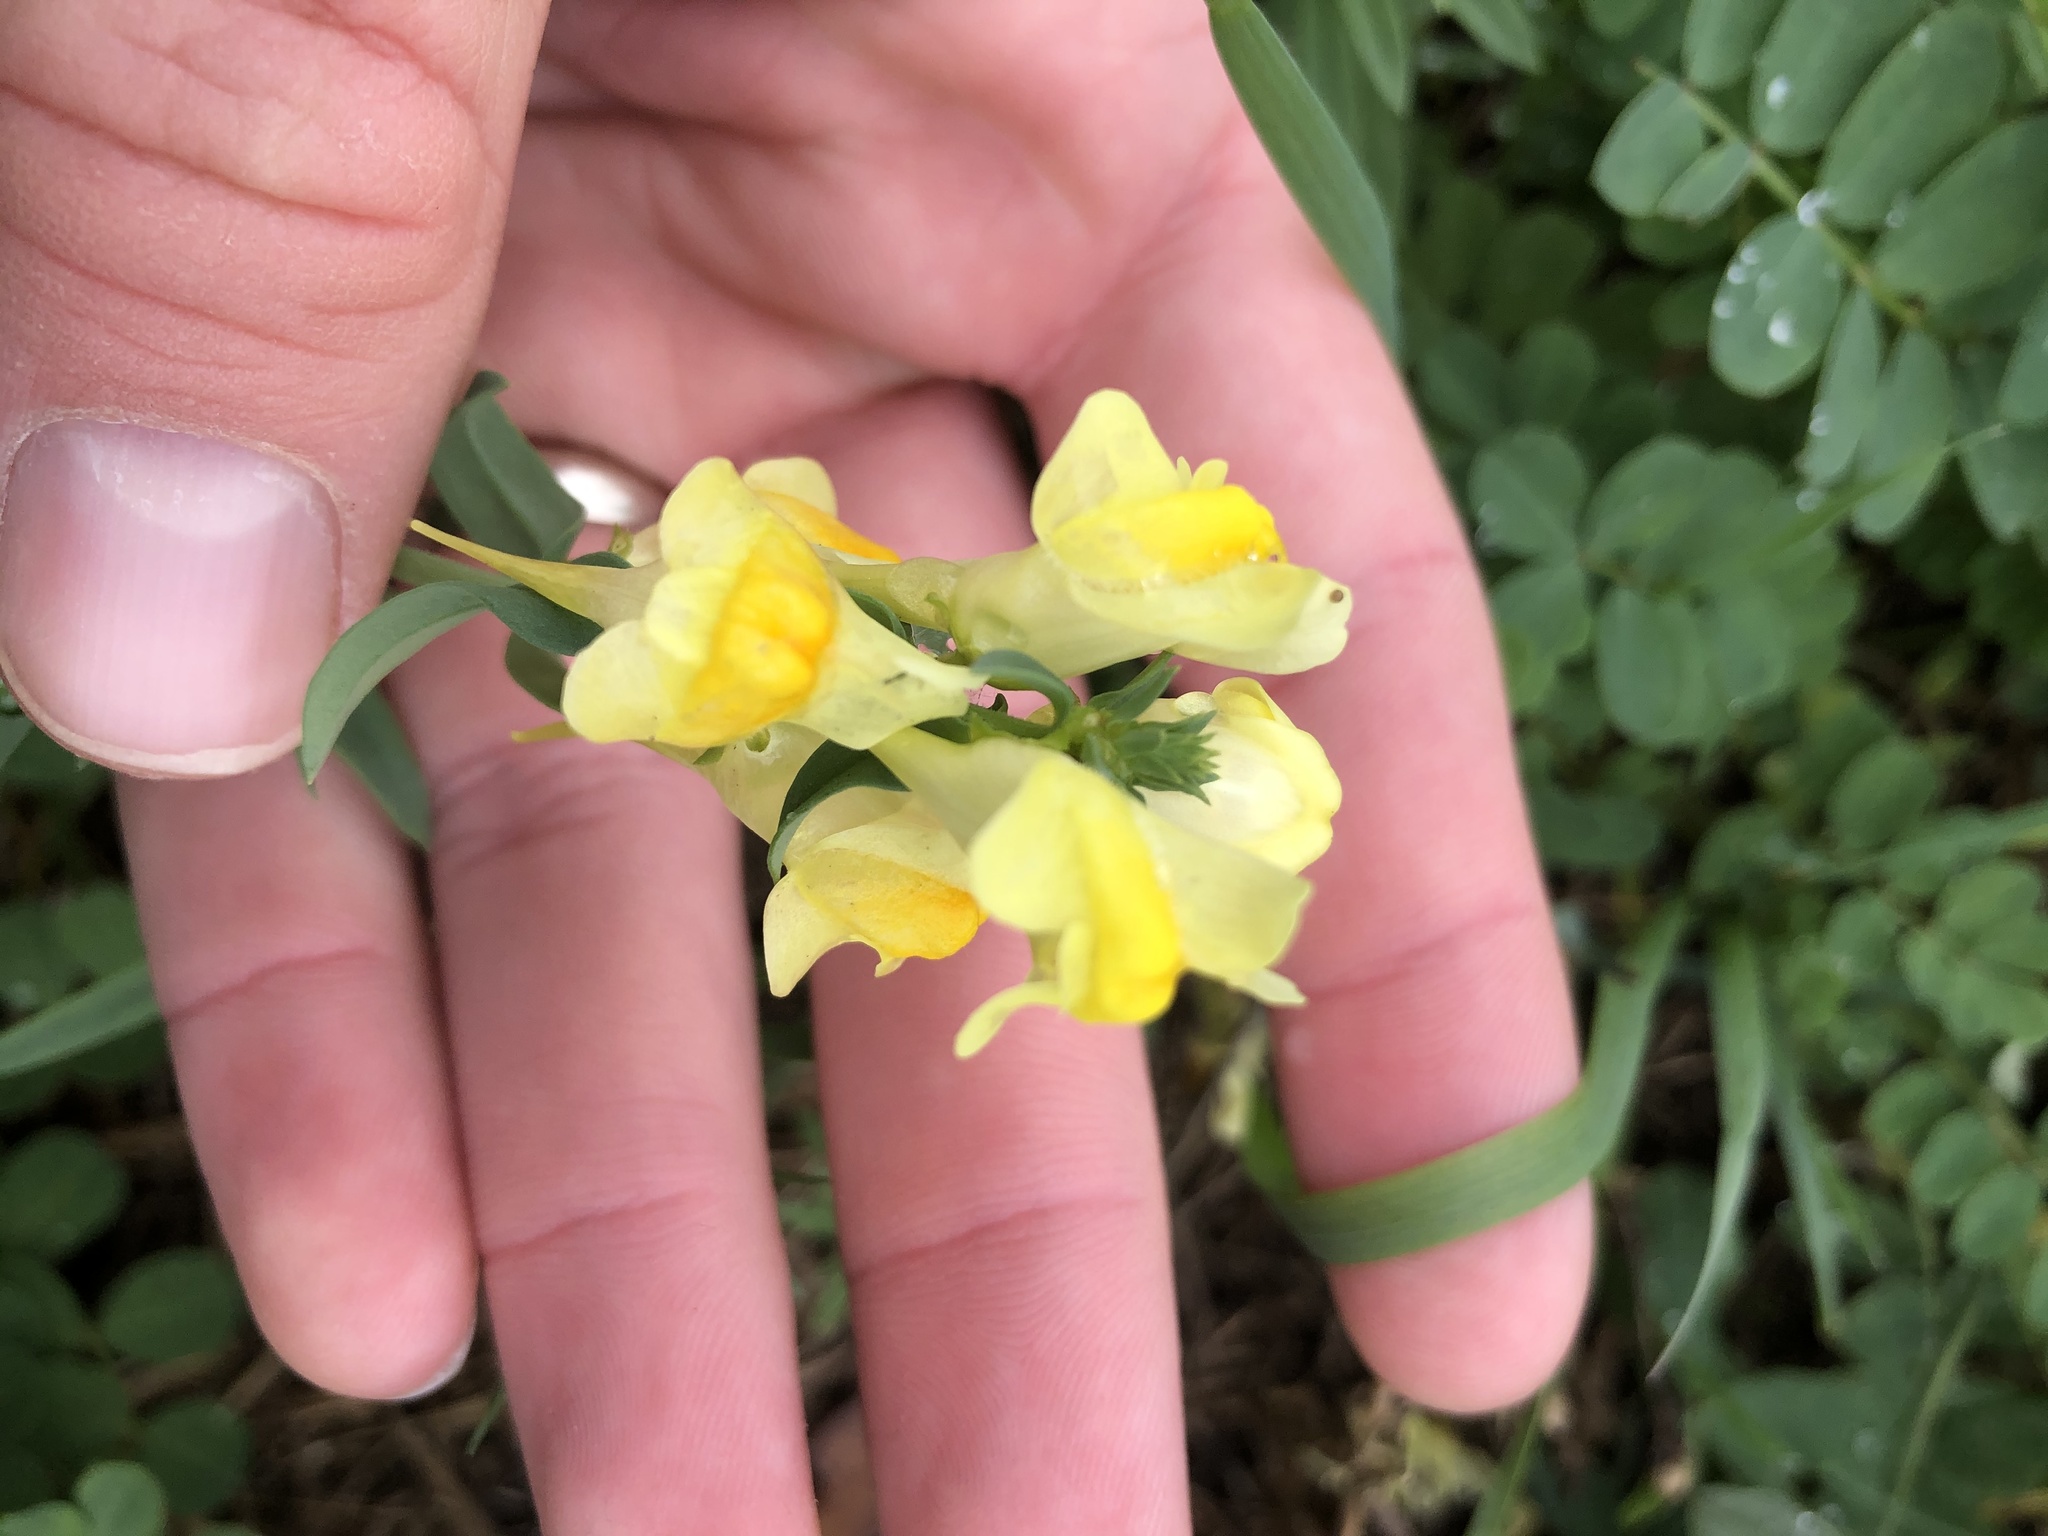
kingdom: Plantae
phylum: Tracheophyta
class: Magnoliopsida
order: Lamiales
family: Plantaginaceae
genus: Linaria
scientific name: Linaria vulgaris
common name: Butter and eggs
